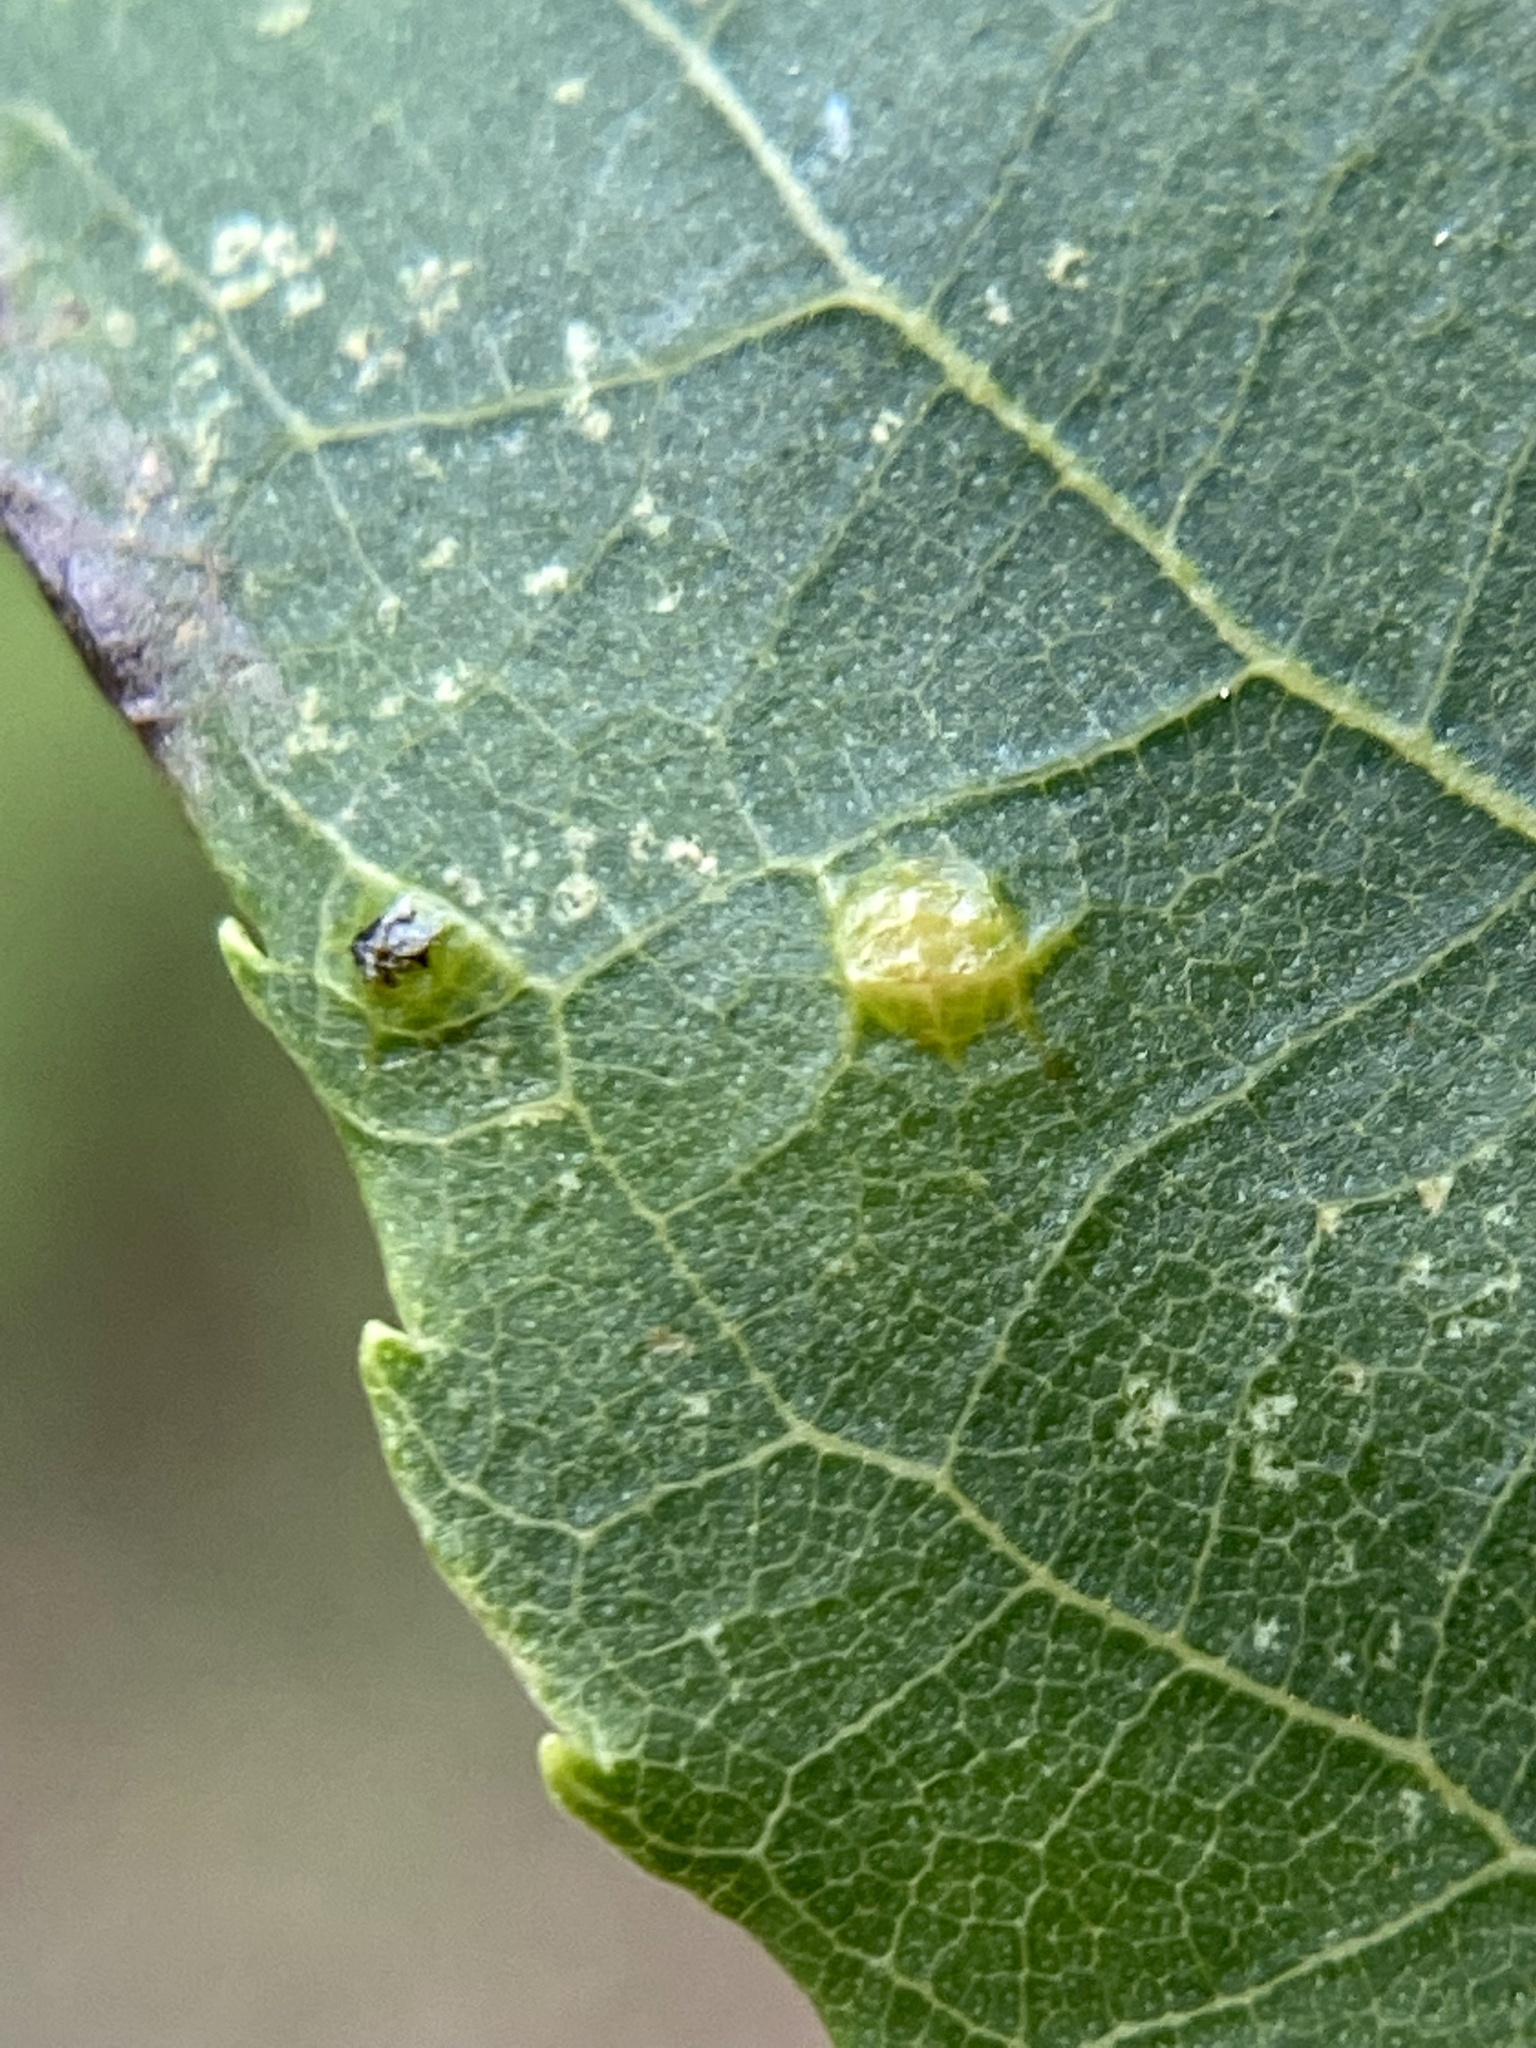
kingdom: Animalia
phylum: Arthropoda
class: Insecta
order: Diptera
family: Cecidomyiidae
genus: Caryomyia
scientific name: Caryomyia sanguinolenta
